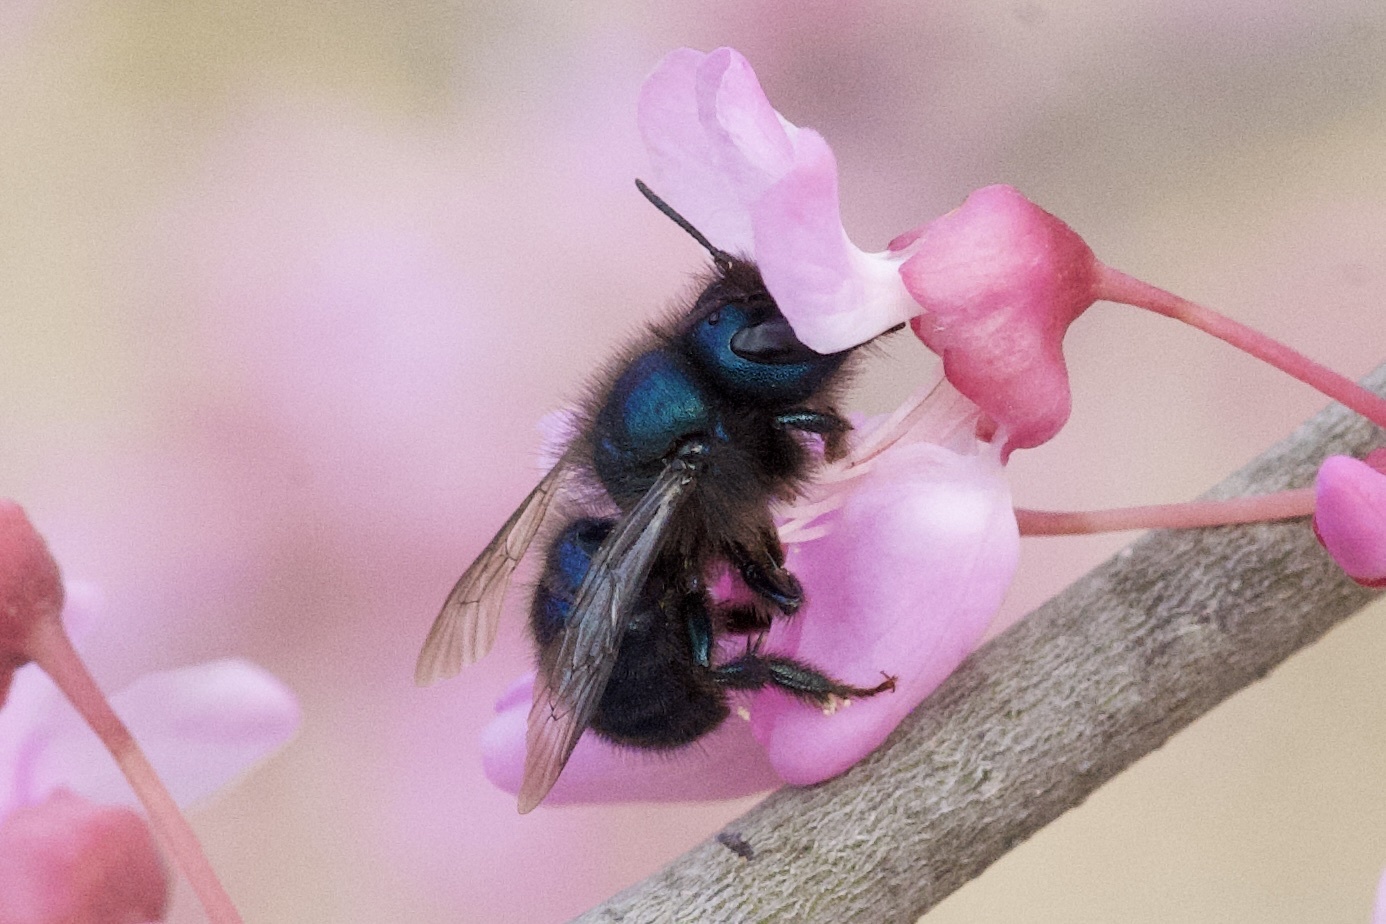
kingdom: Animalia
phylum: Arthropoda
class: Insecta
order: Hymenoptera
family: Megachilidae
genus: Osmia
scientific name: Osmia ribifloris
